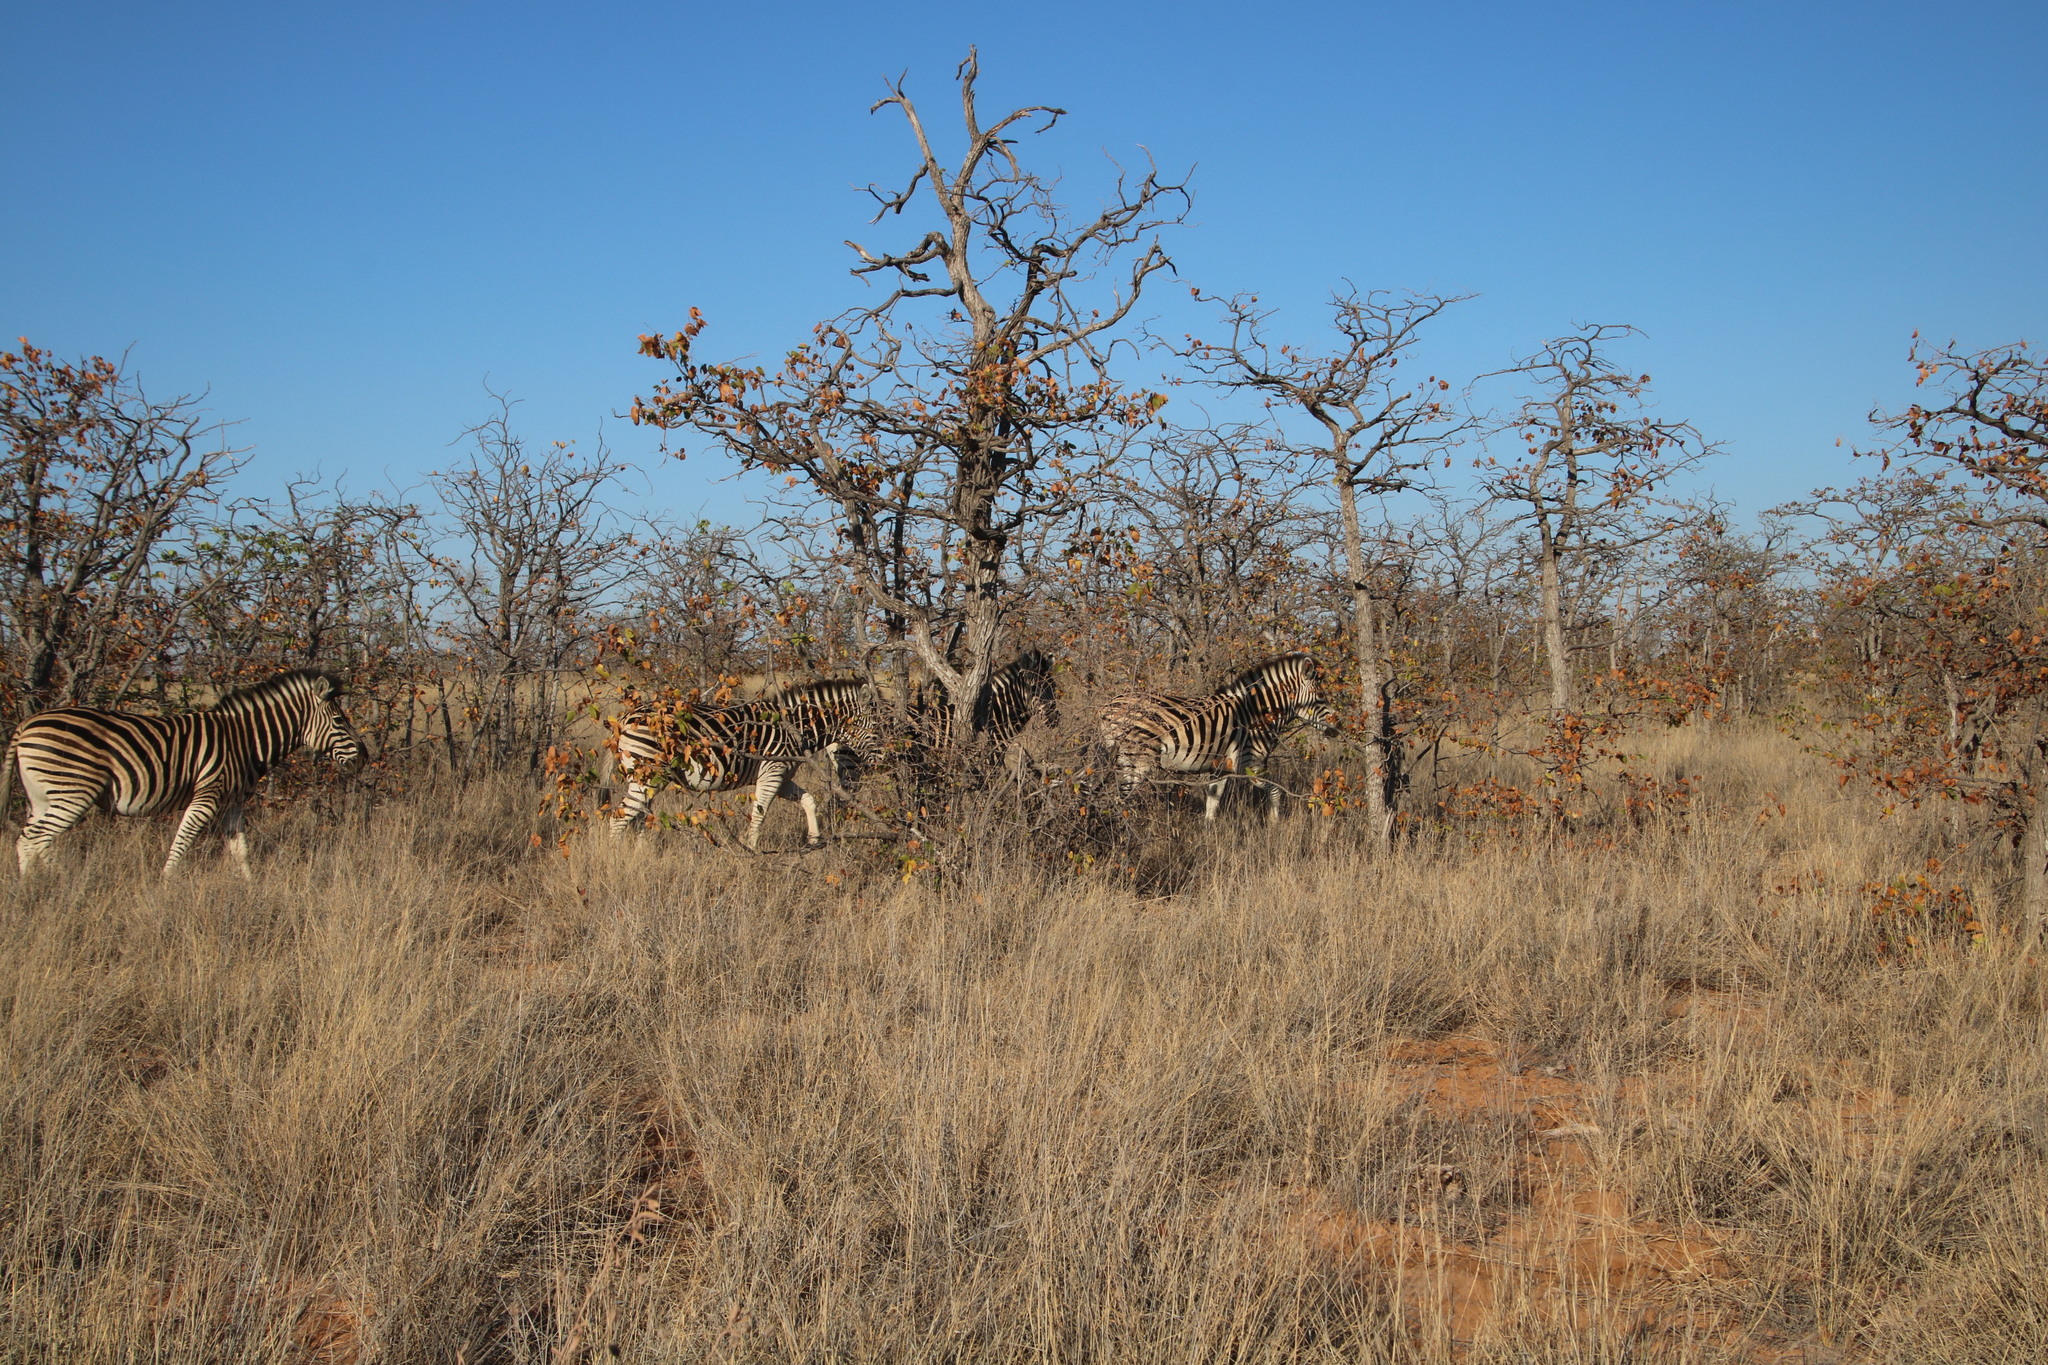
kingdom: Animalia
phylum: Chordata
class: Mammalia
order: Perissodactyla
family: Equidae
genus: Equus
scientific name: Equus quagga
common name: Plains zebra
